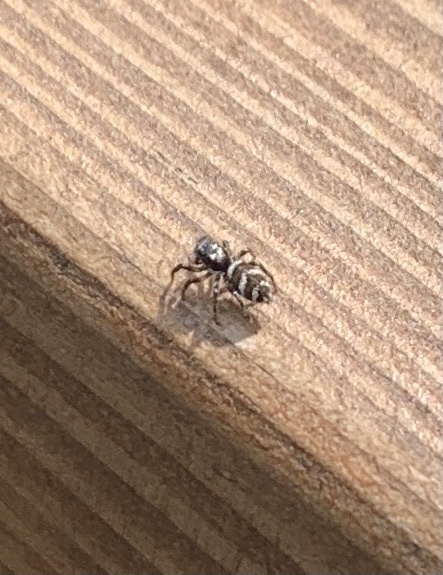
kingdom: Animalia
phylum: Arthropoda
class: Arachnida
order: Araneae
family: Salticidae
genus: Salticus
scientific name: Salticus scenicus
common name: Zebra jumper
